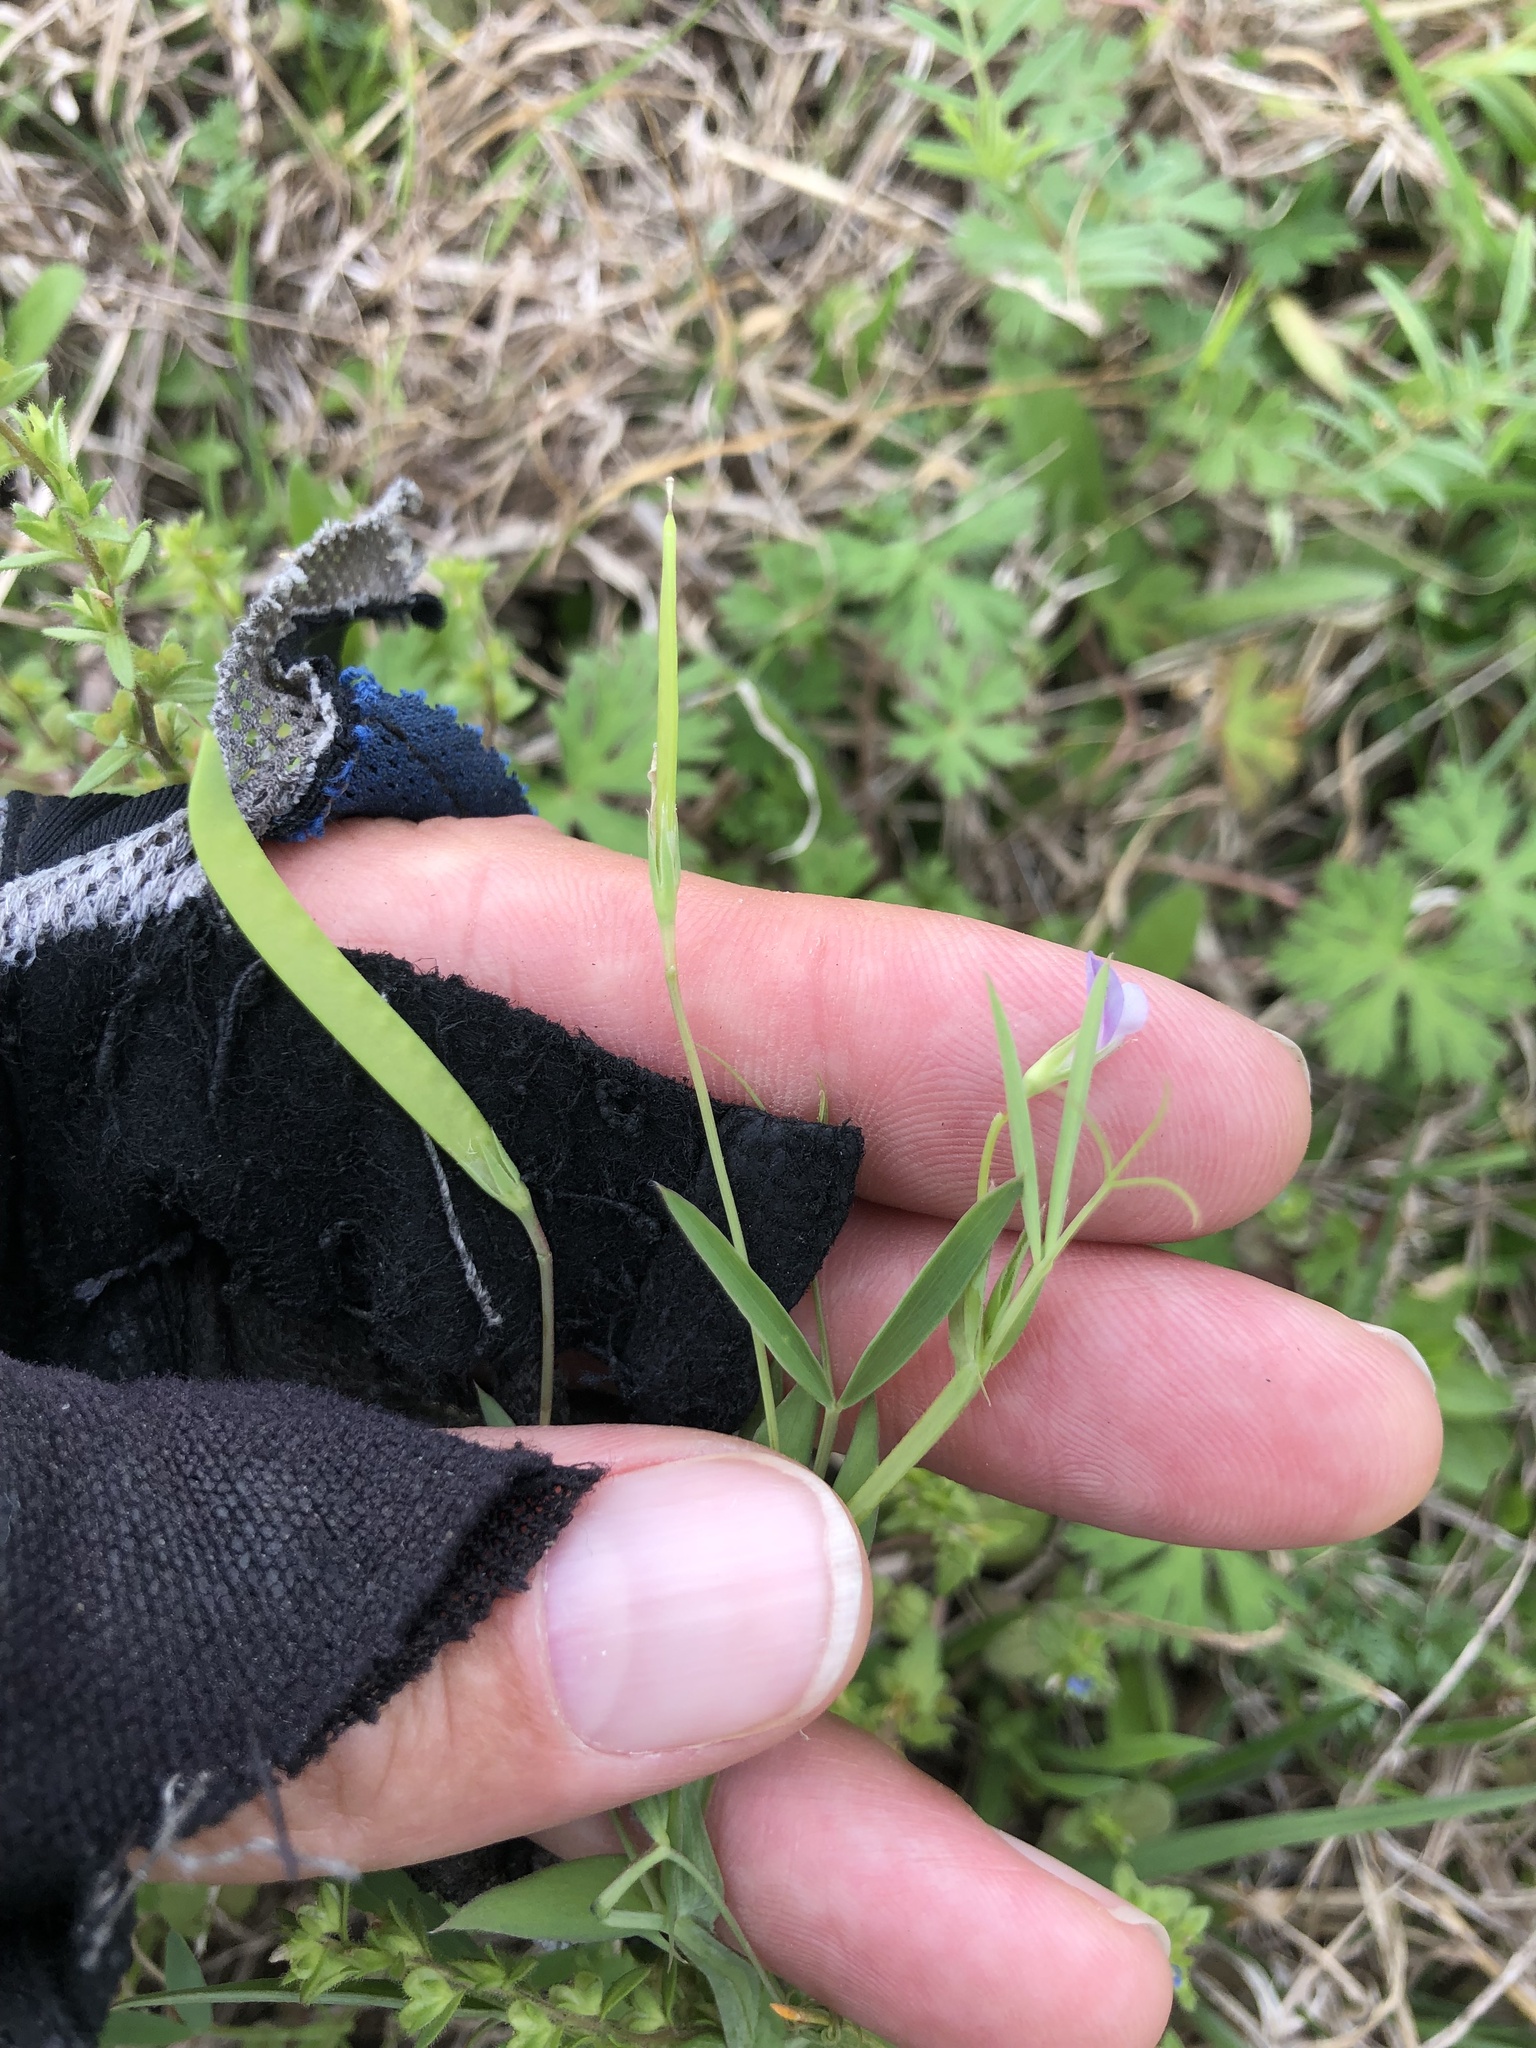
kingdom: Plantae
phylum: Tracheophyta
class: Magnoliopsida
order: Fabales
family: Fabaceae
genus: Lathyrus
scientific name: Lathyrus pusillus
